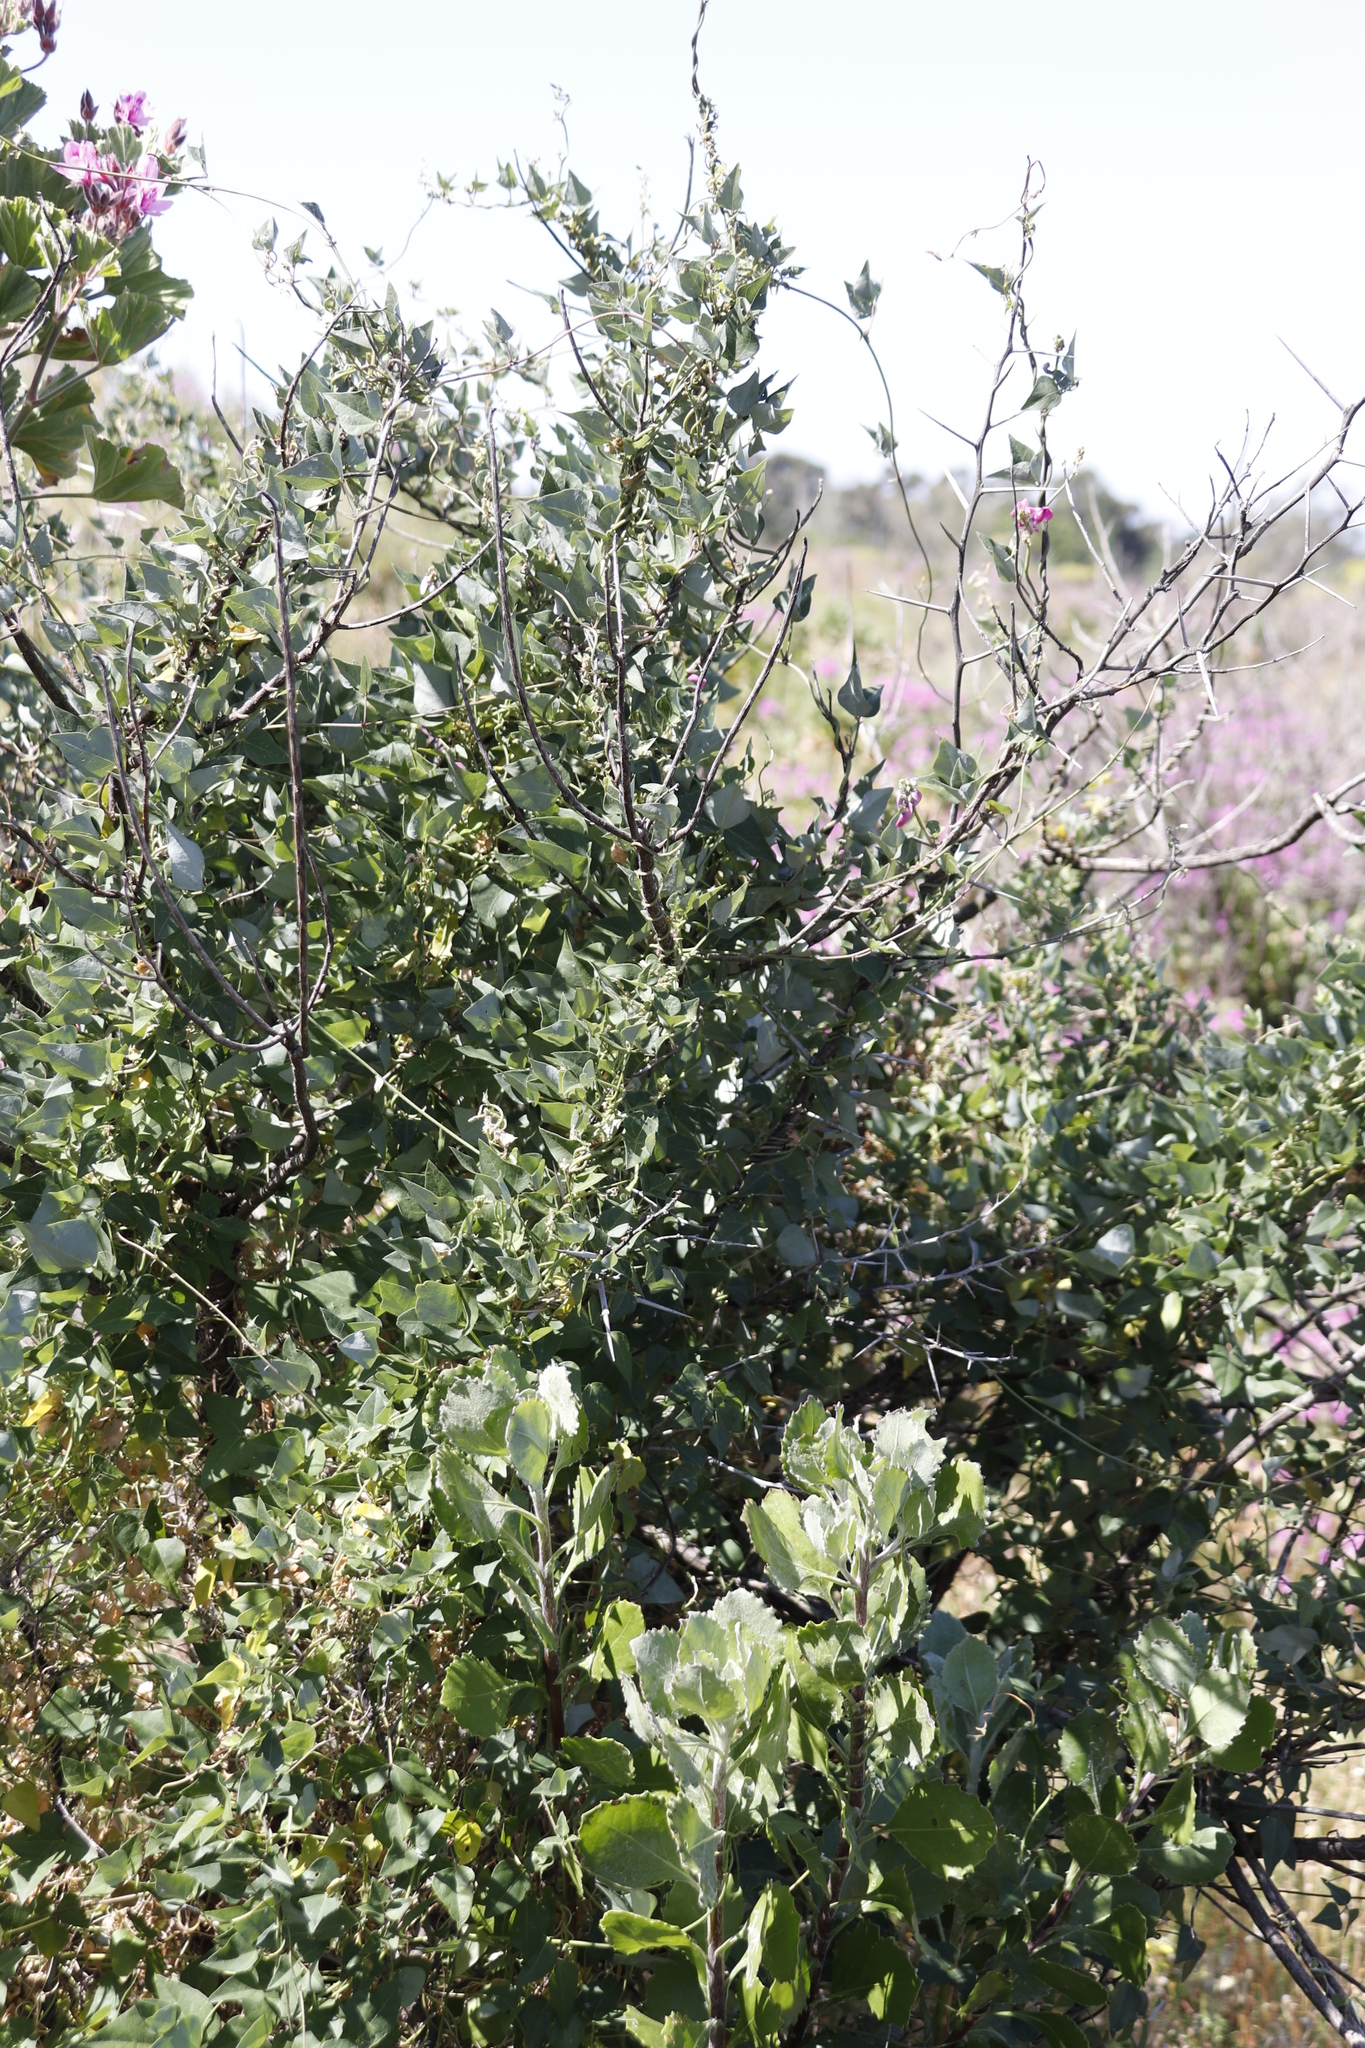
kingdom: Plantae
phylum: Tracheophyta
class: Magnoliopsida
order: Fabales
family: Fabaceae
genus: Dipogon
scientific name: Dipogon lignosus
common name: Okie bean
